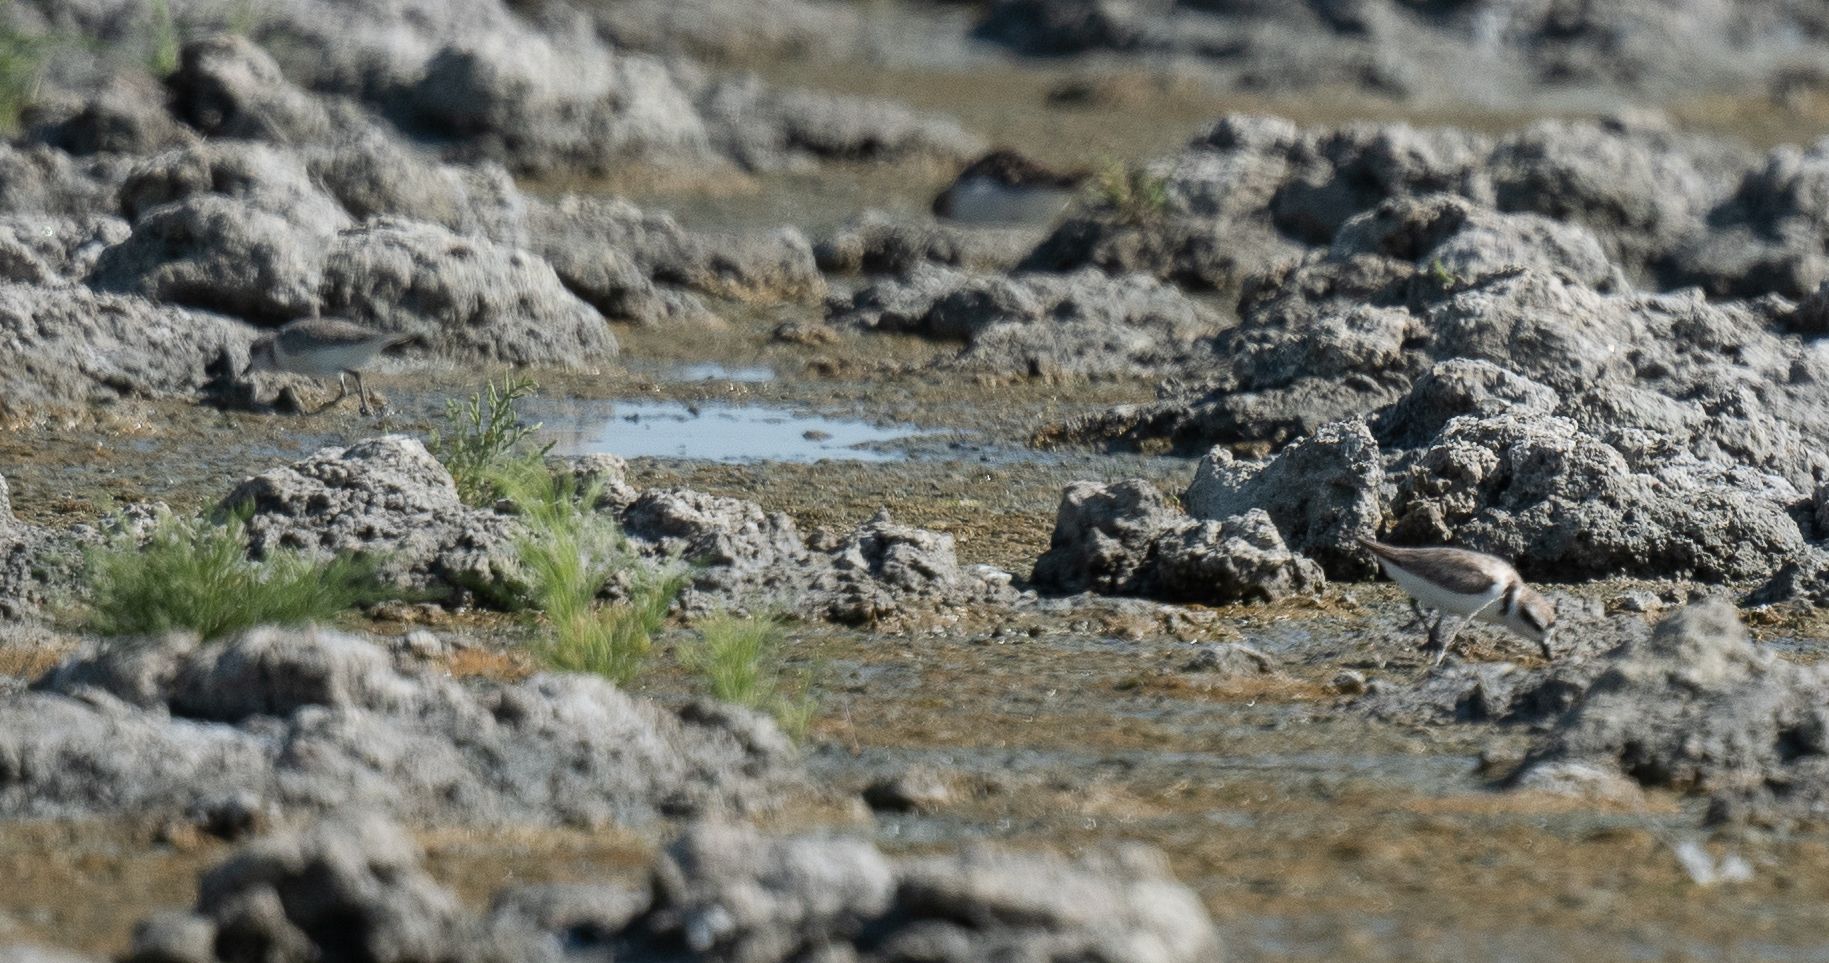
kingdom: Animalia
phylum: Chordata
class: Aves
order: Charadriiformes
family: Charadriidae
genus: Anarhynchus
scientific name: Anarhynchus
